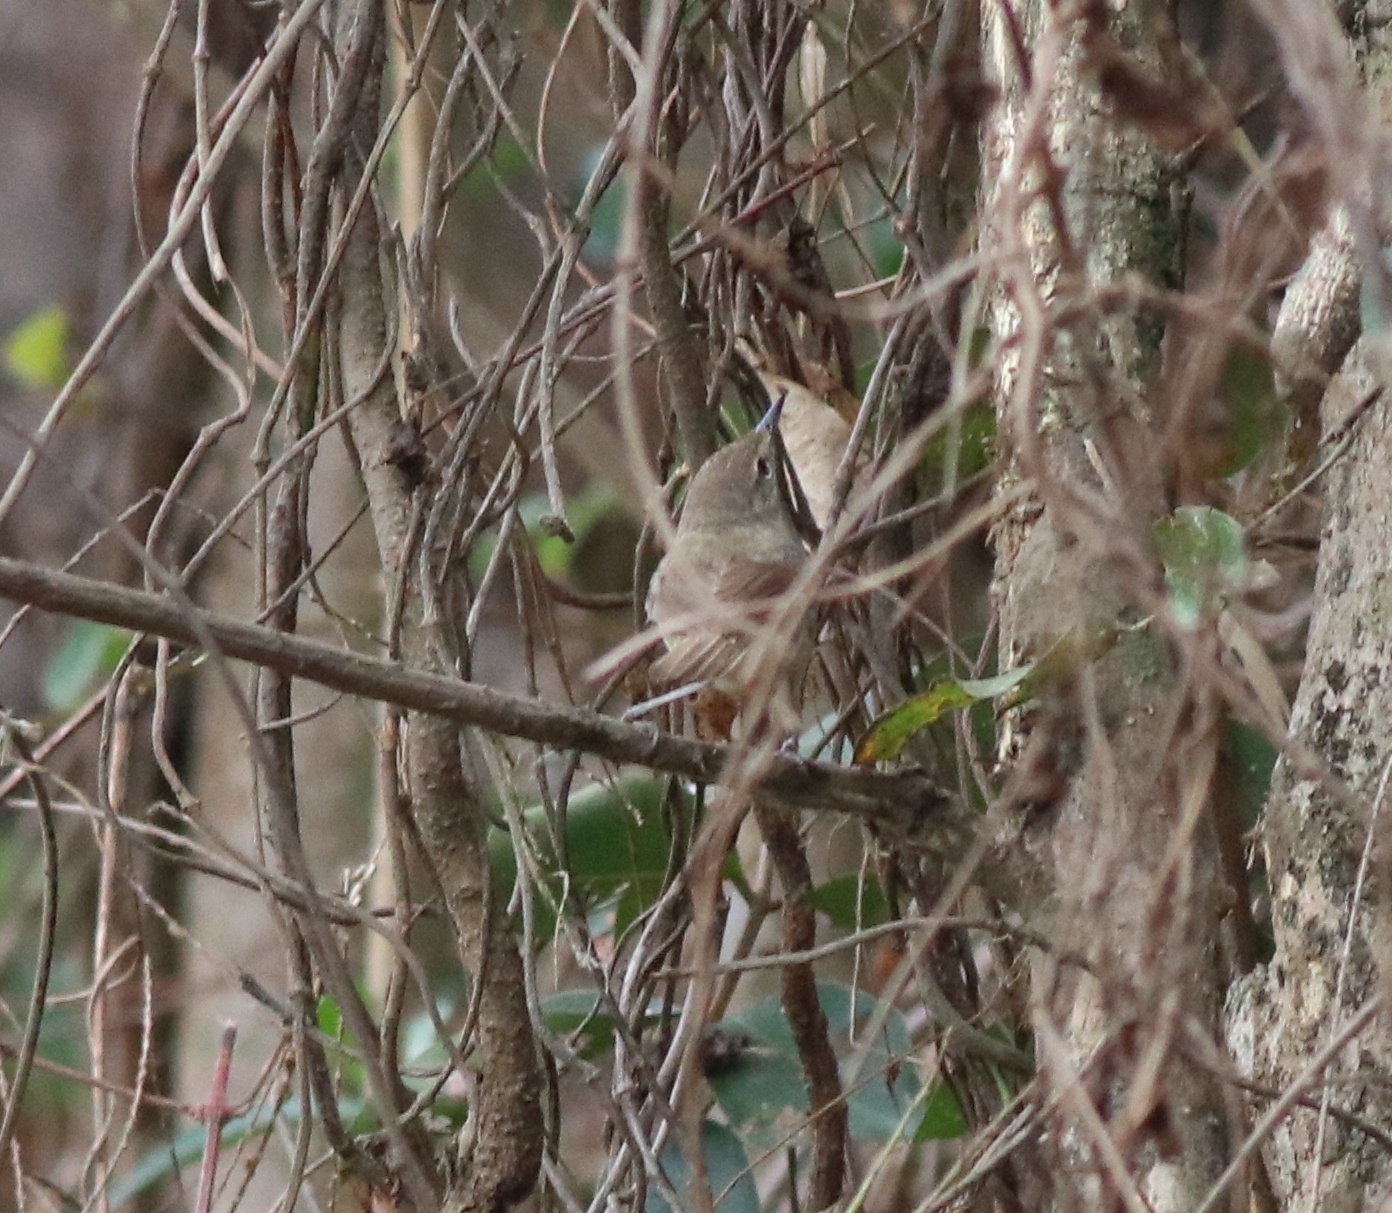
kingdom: Animalia
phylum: Chordata
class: Aves
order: Passeriformes
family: Acrocephalidae
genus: Acrocephalus
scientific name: Acrocephalus dumetorum
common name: Blyth's reed warbler
